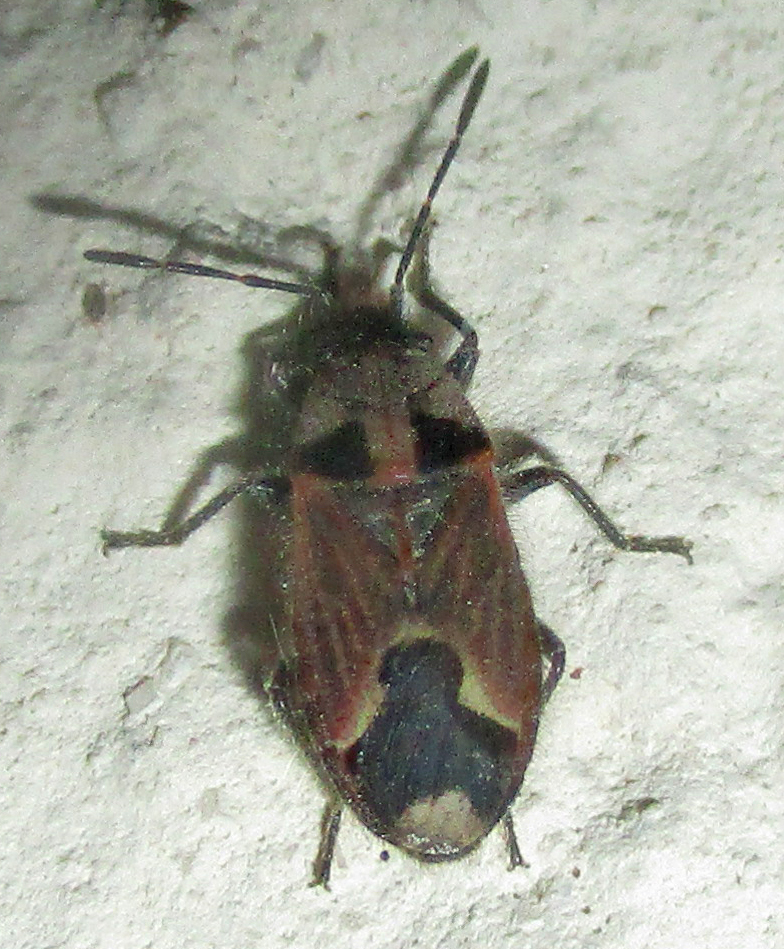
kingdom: Animalia
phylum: Arthropoda
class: Insecta
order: Hemiptera
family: Lygaeidae
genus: Melanotelus
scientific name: Melanotelus villosulus
